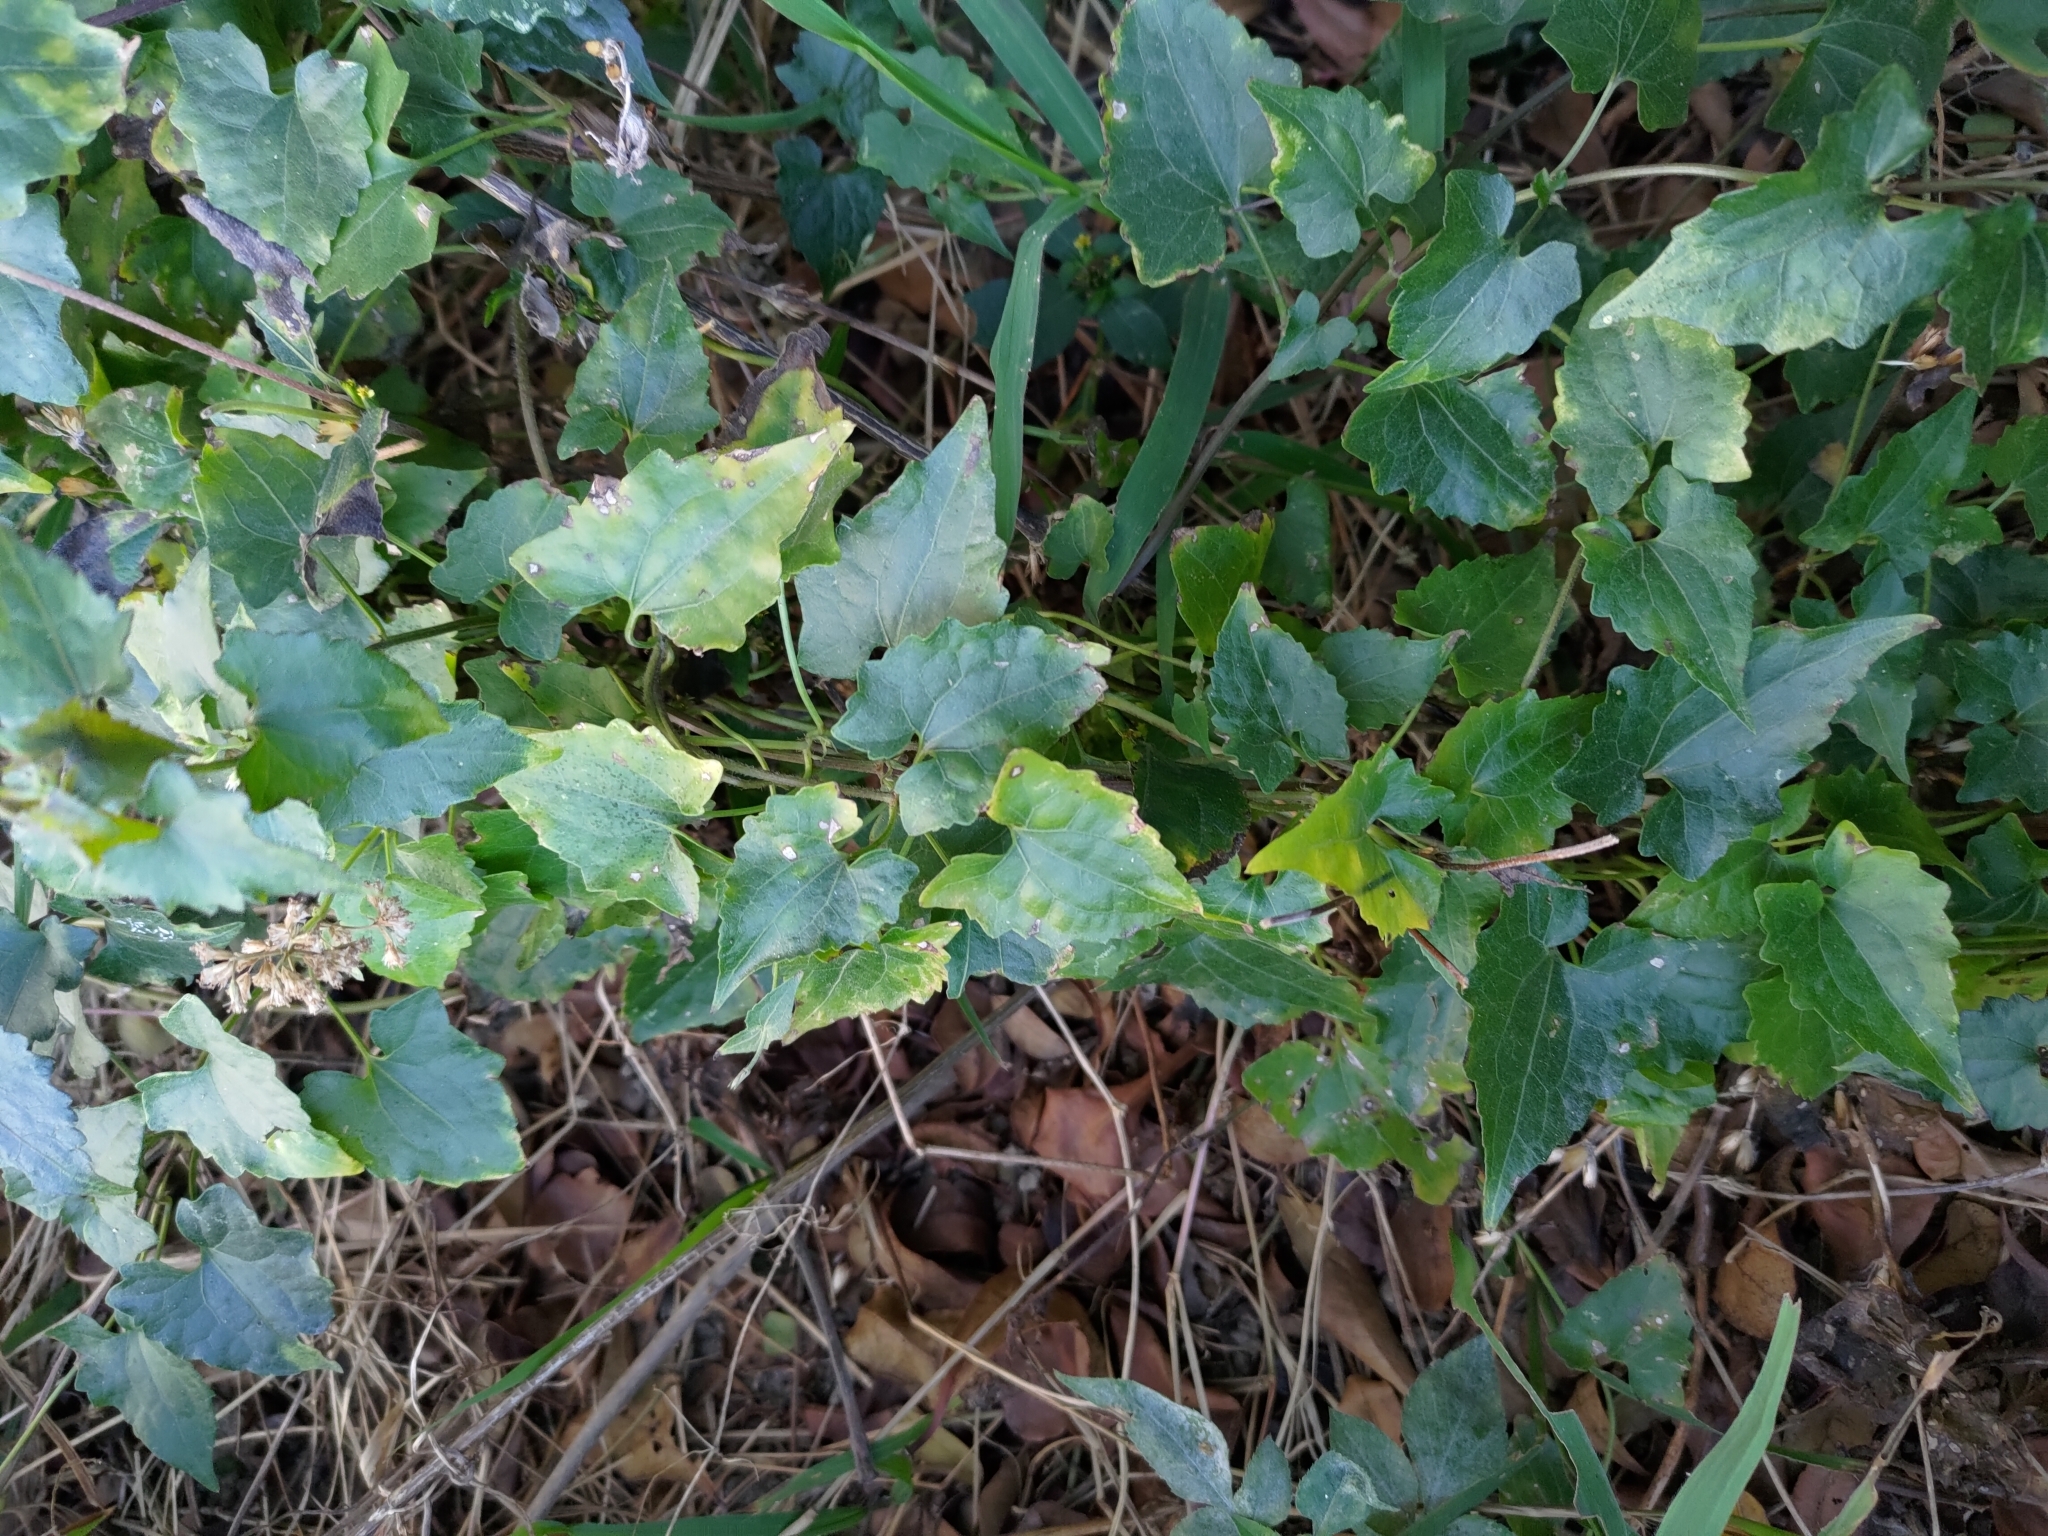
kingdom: Plantae
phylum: Tracheophyta
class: Magnoliopsida
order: Asterales
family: Asteraceae
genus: Mikania
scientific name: Mikania micrantha
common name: Mile-a-minute
